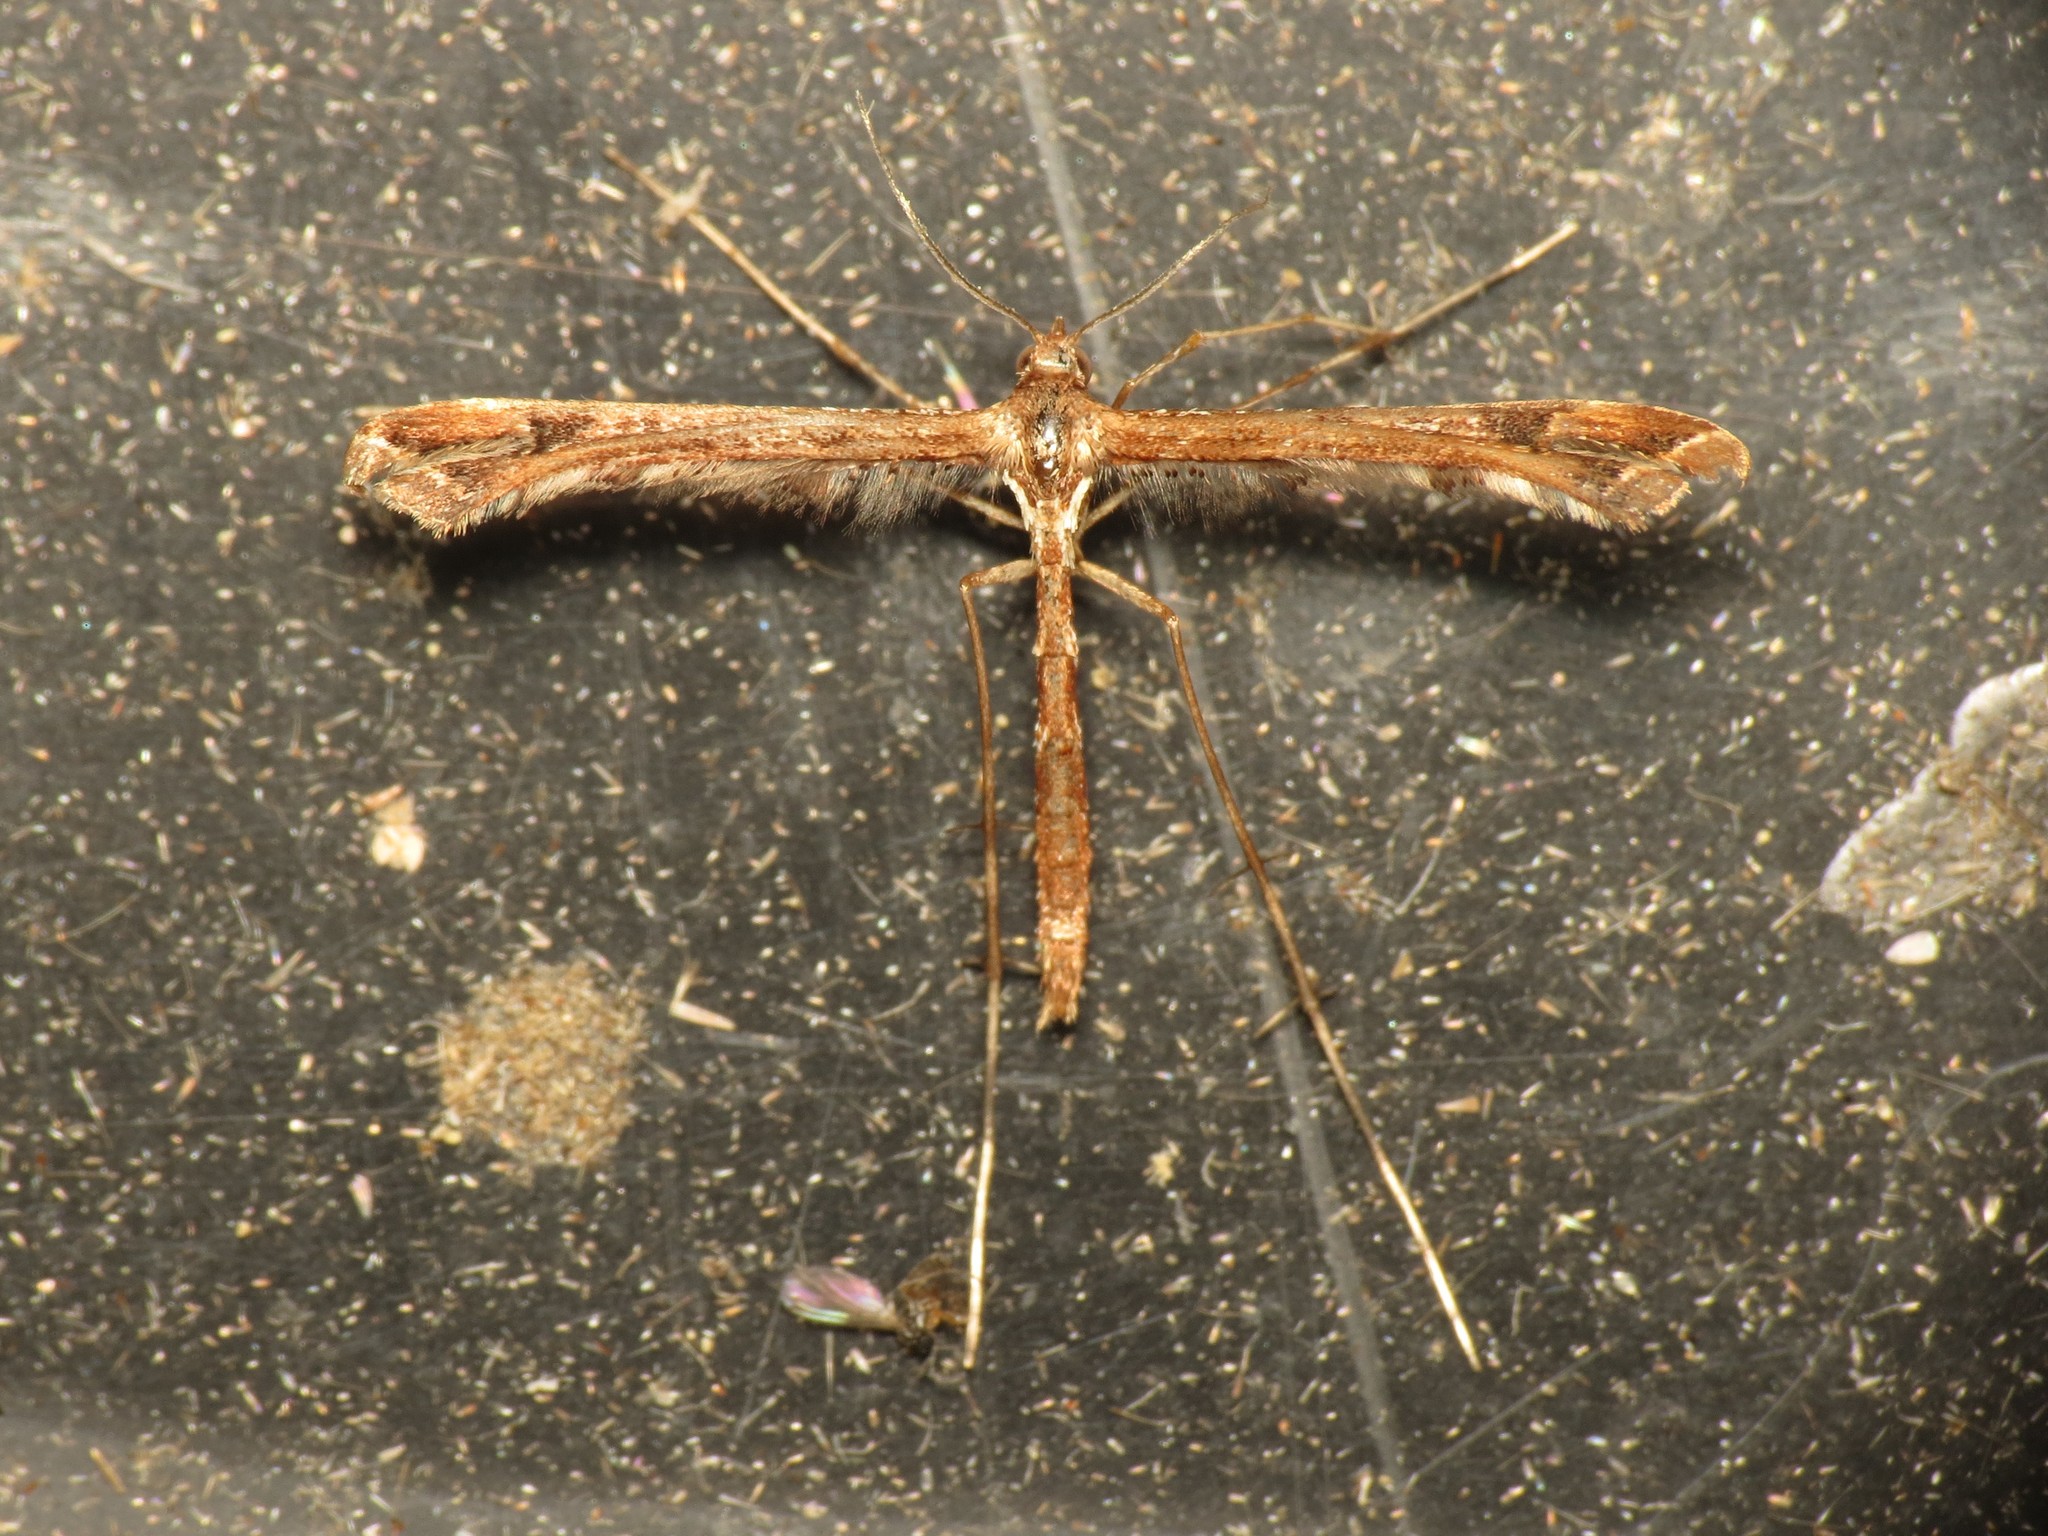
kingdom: Animalia
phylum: Arthropoda
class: Insecta
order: Lepidoptera
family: Pterophoridae
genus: Amblyptilia
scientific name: Amblyptilia acanthadactyla
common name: Beautiful plume
